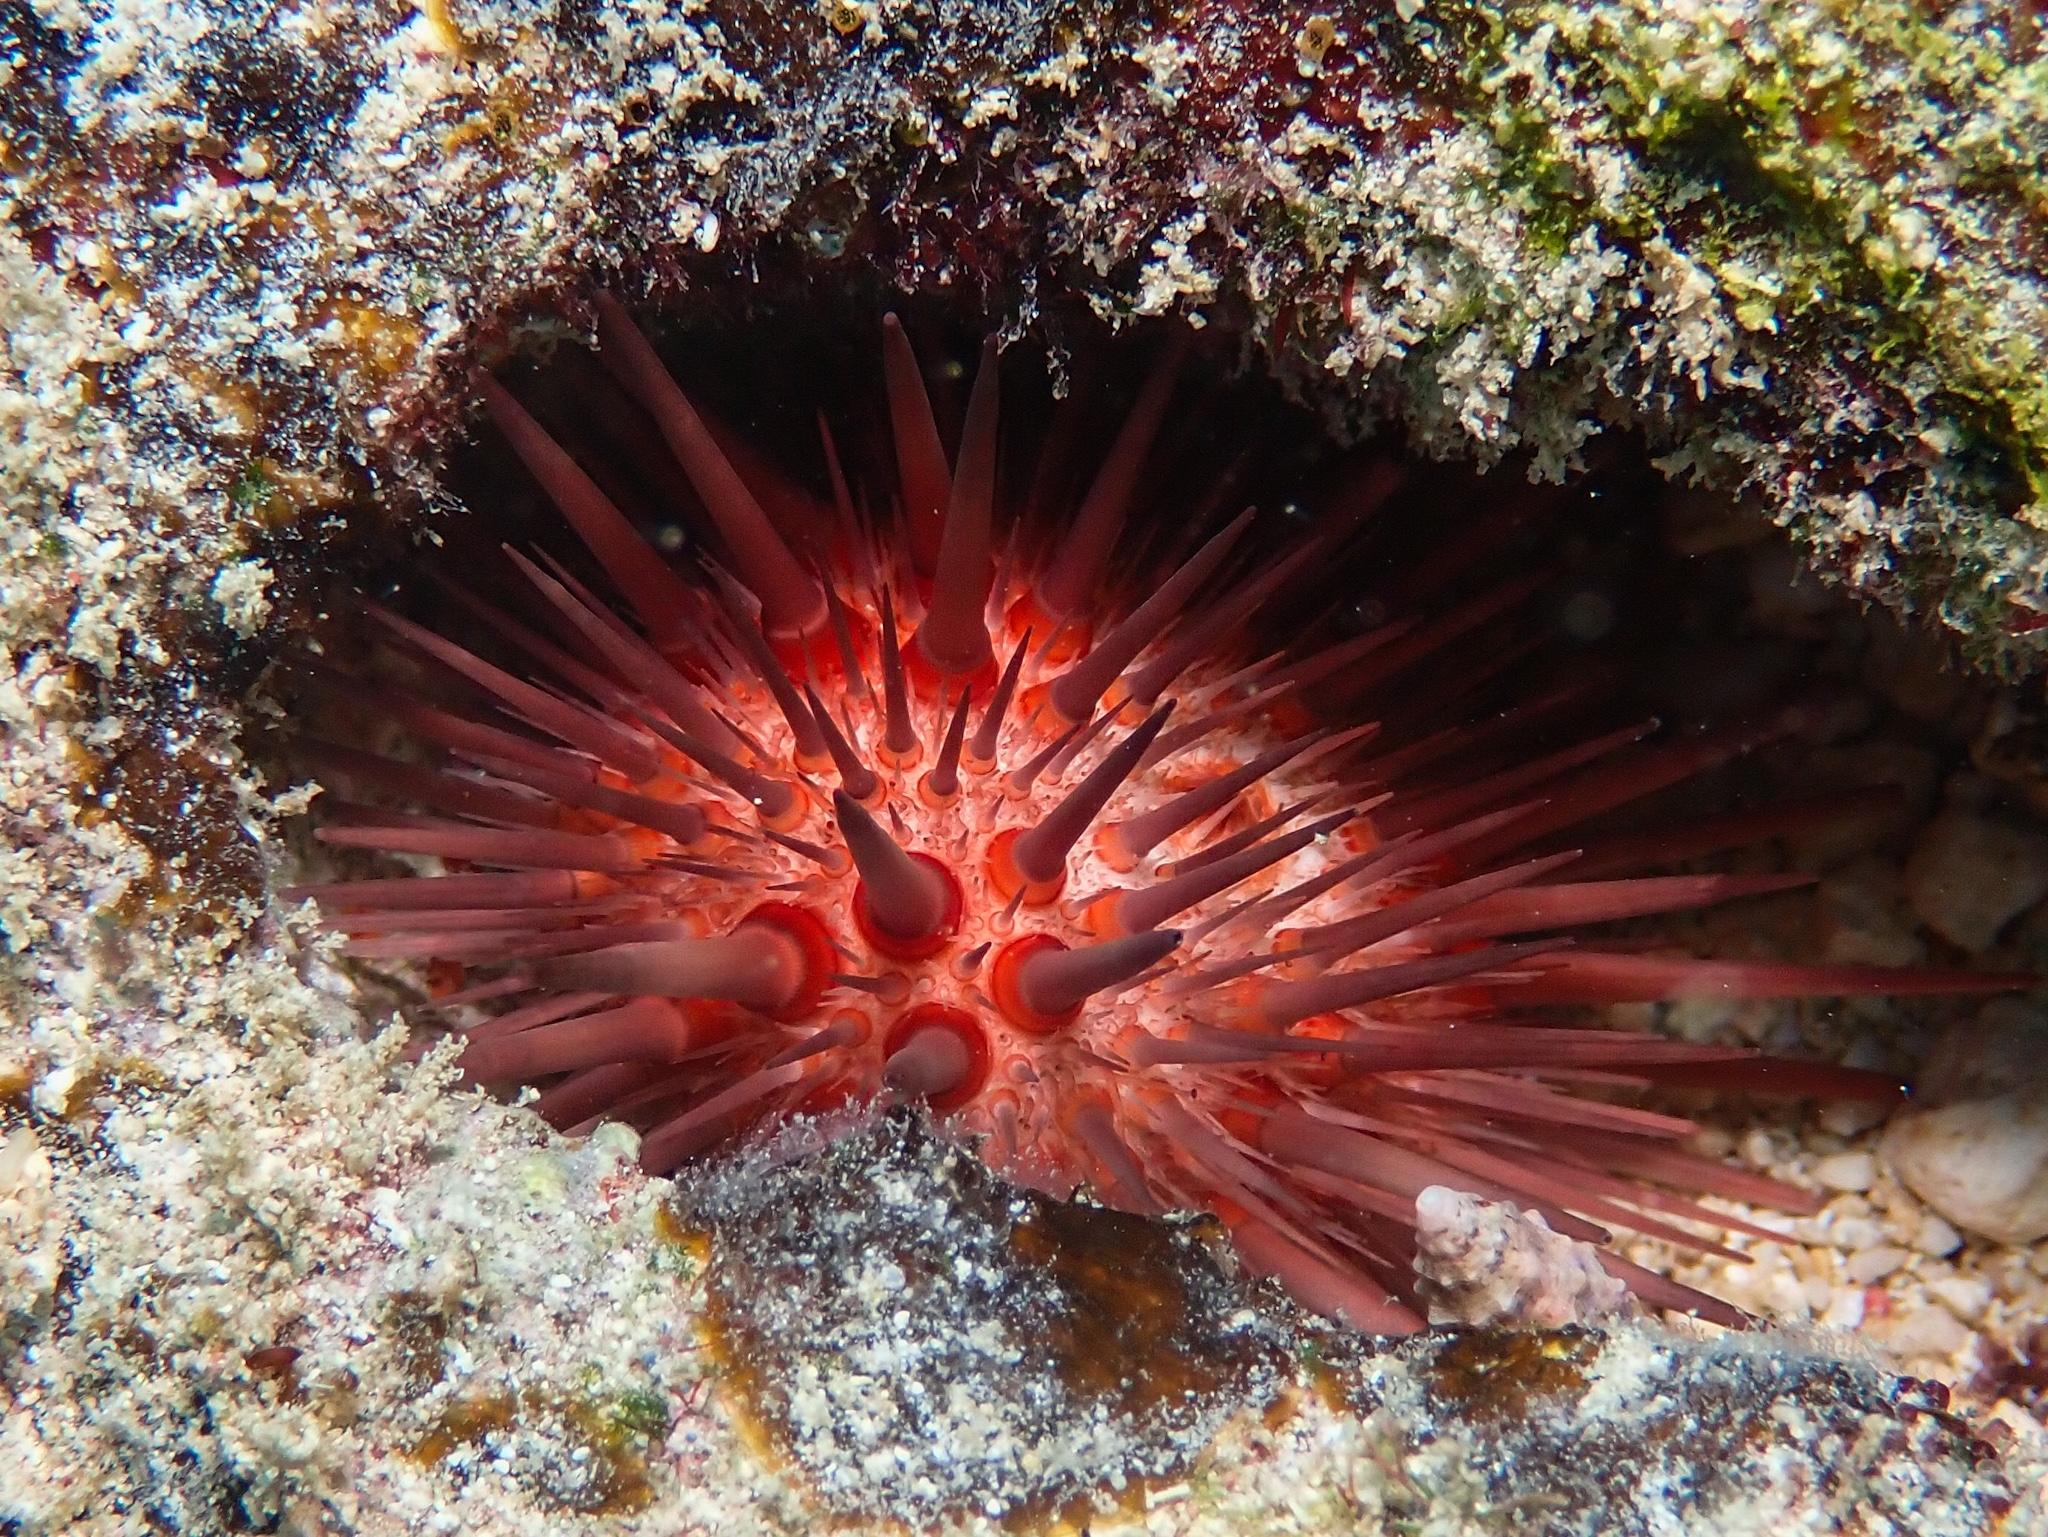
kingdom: Animalia
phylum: Echinodermata
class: Echinoidea
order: Camarodonta
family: Echinometridae
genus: Echinometra
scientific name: Echinometra lucunter
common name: Rock urchin
